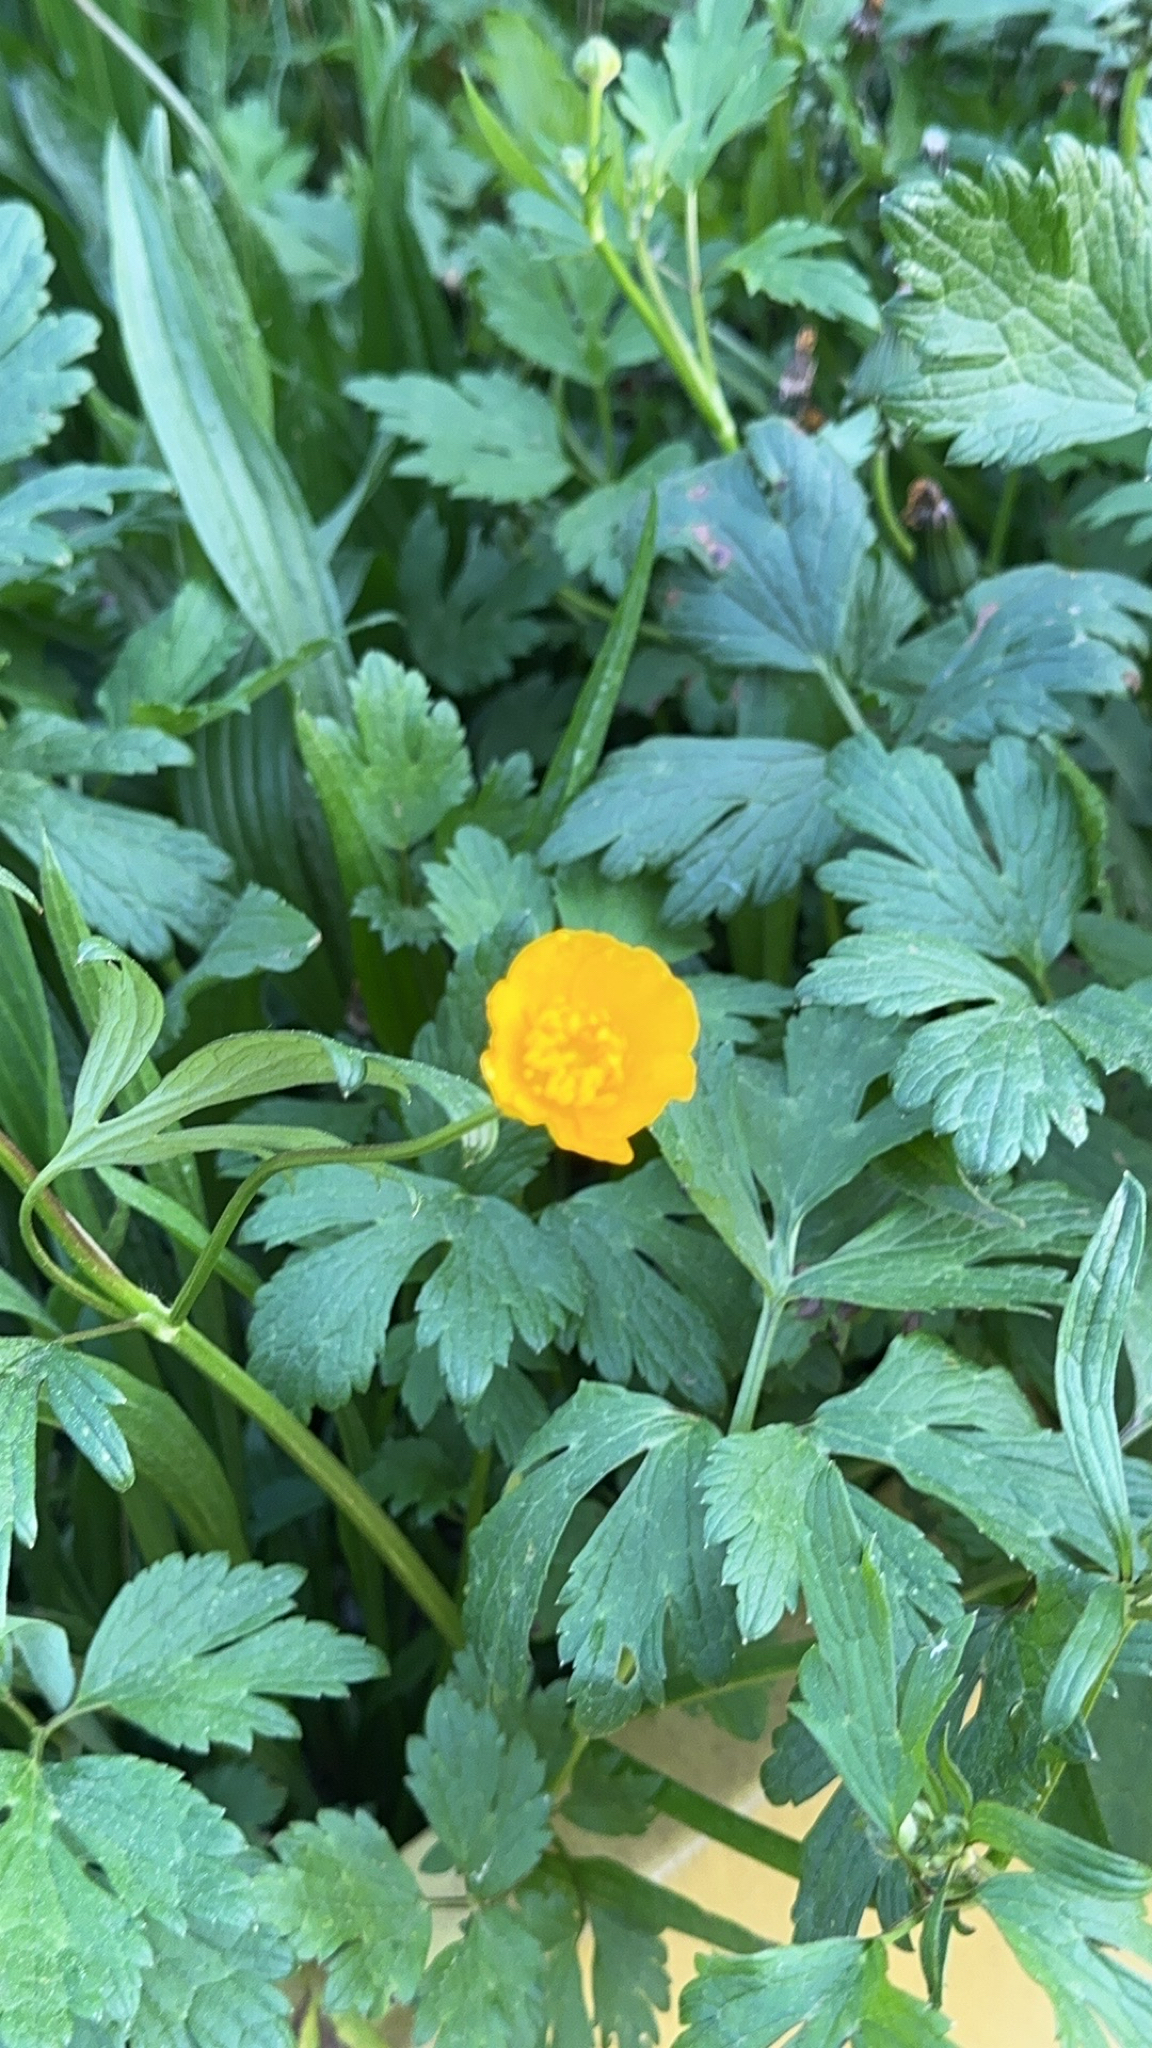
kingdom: Plantae
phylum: Tracheophyta
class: Magnoliopsida
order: Ranunculales
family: Ranunculaceae
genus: Ranunculus
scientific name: Ranunculus repens
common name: Creeping buttercup
